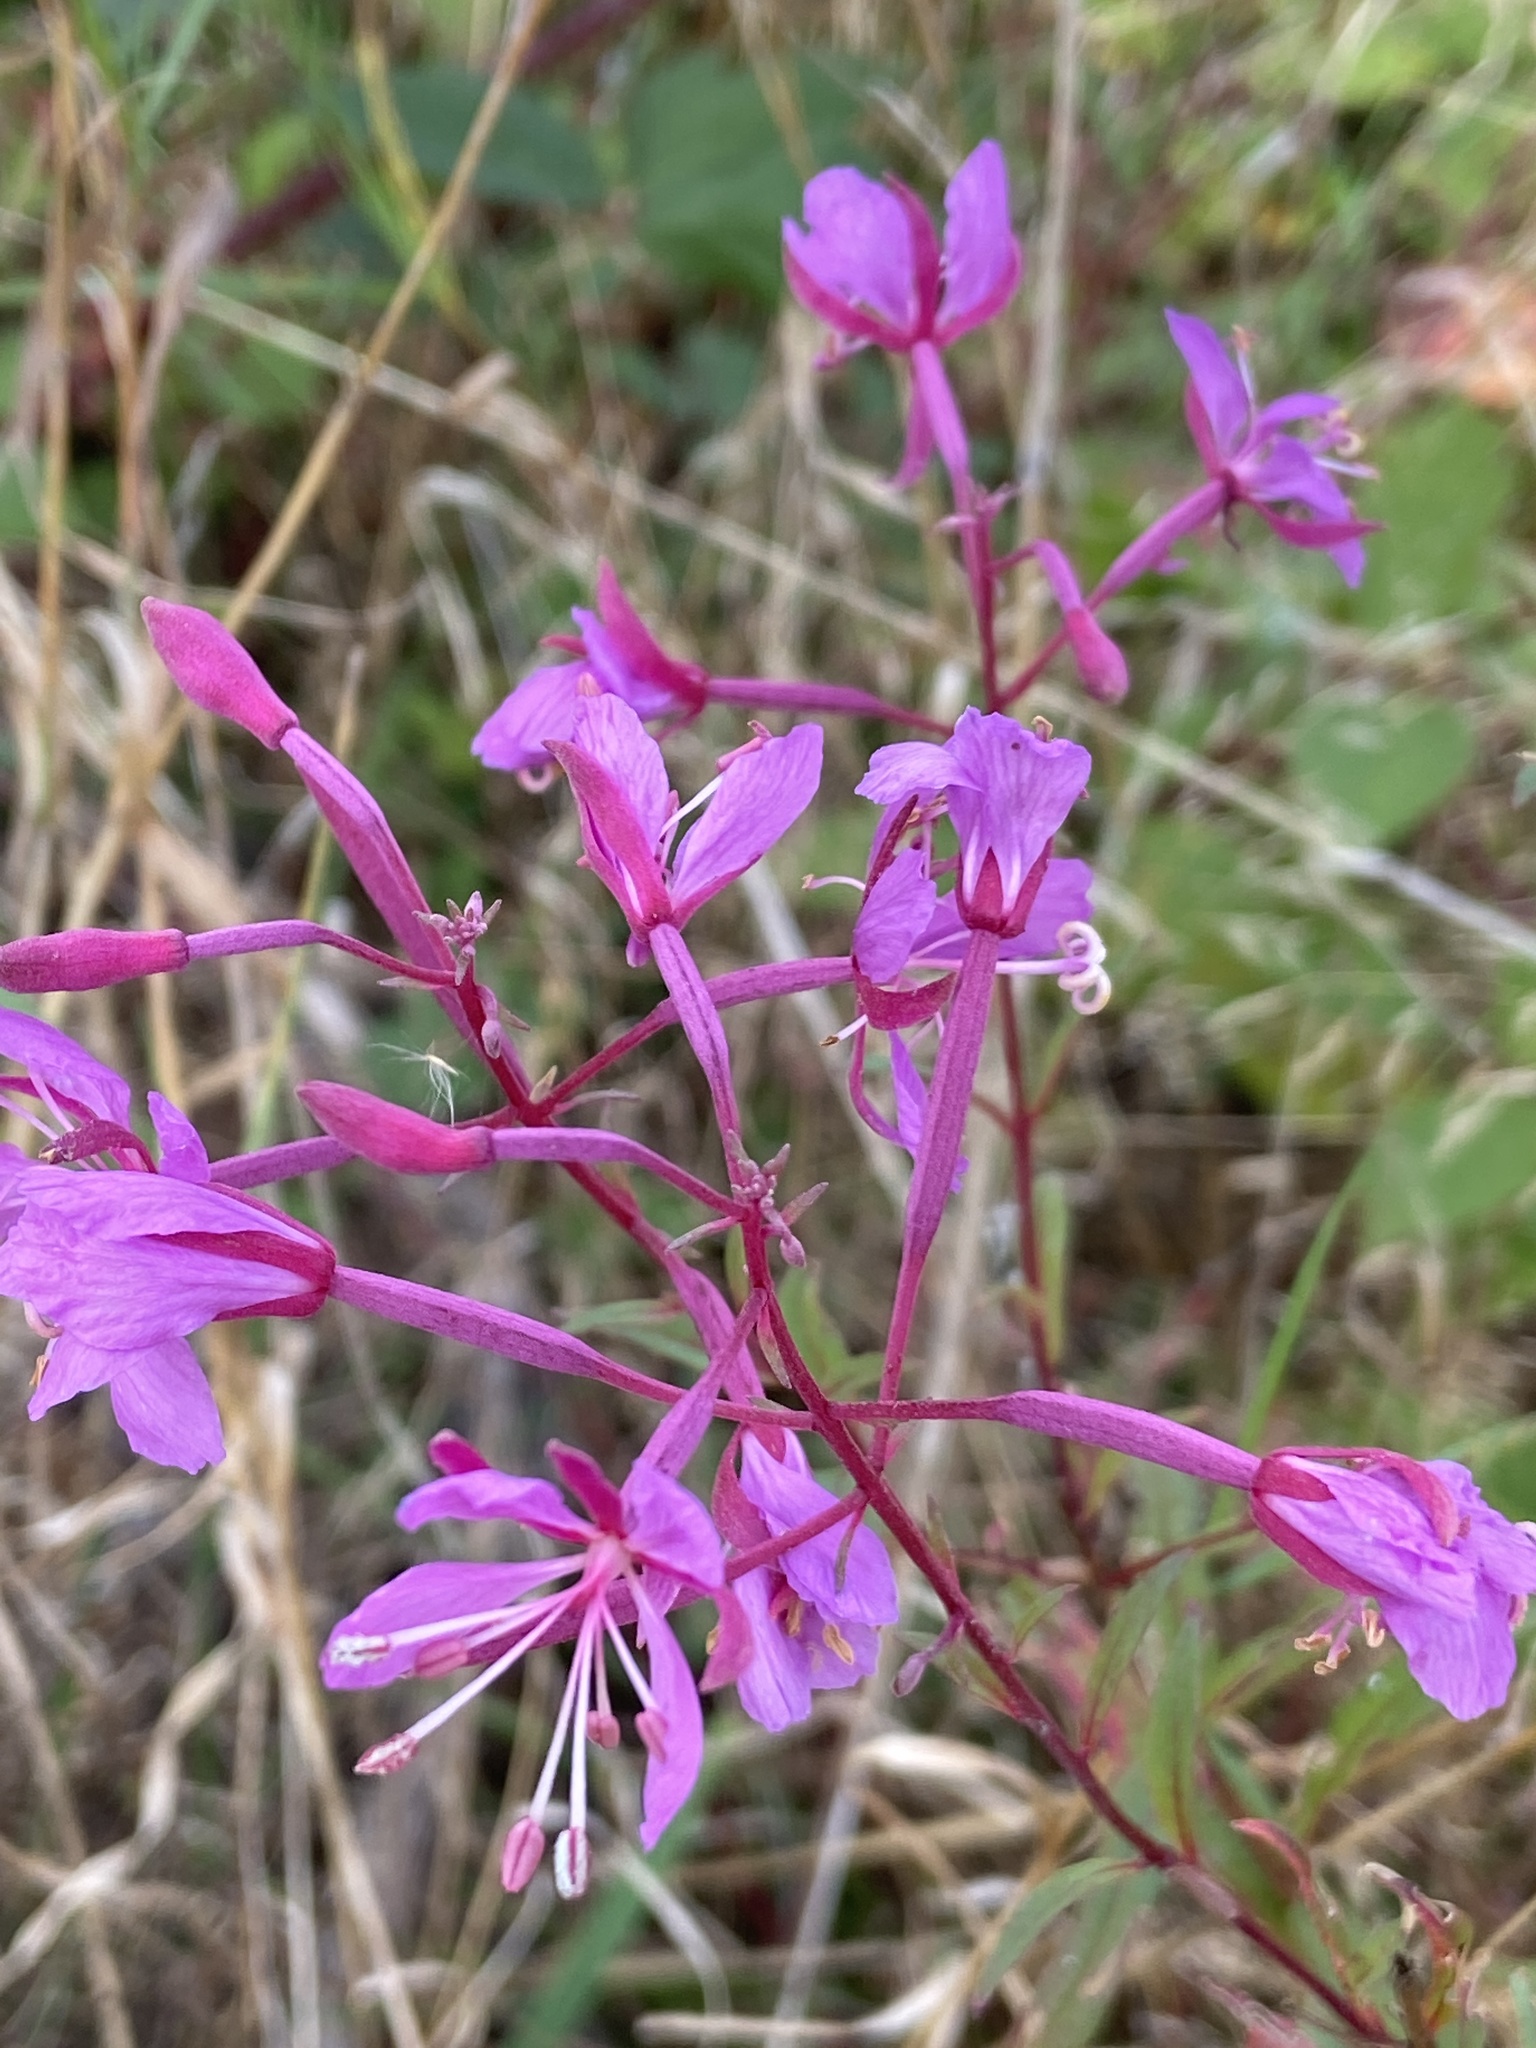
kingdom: Plantae
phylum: Tracheophyta
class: Magnoliopsida
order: Myrtales
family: Onagraceae
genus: Chamaenerion
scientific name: Chamaenerion angustifolium
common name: Fireweed
